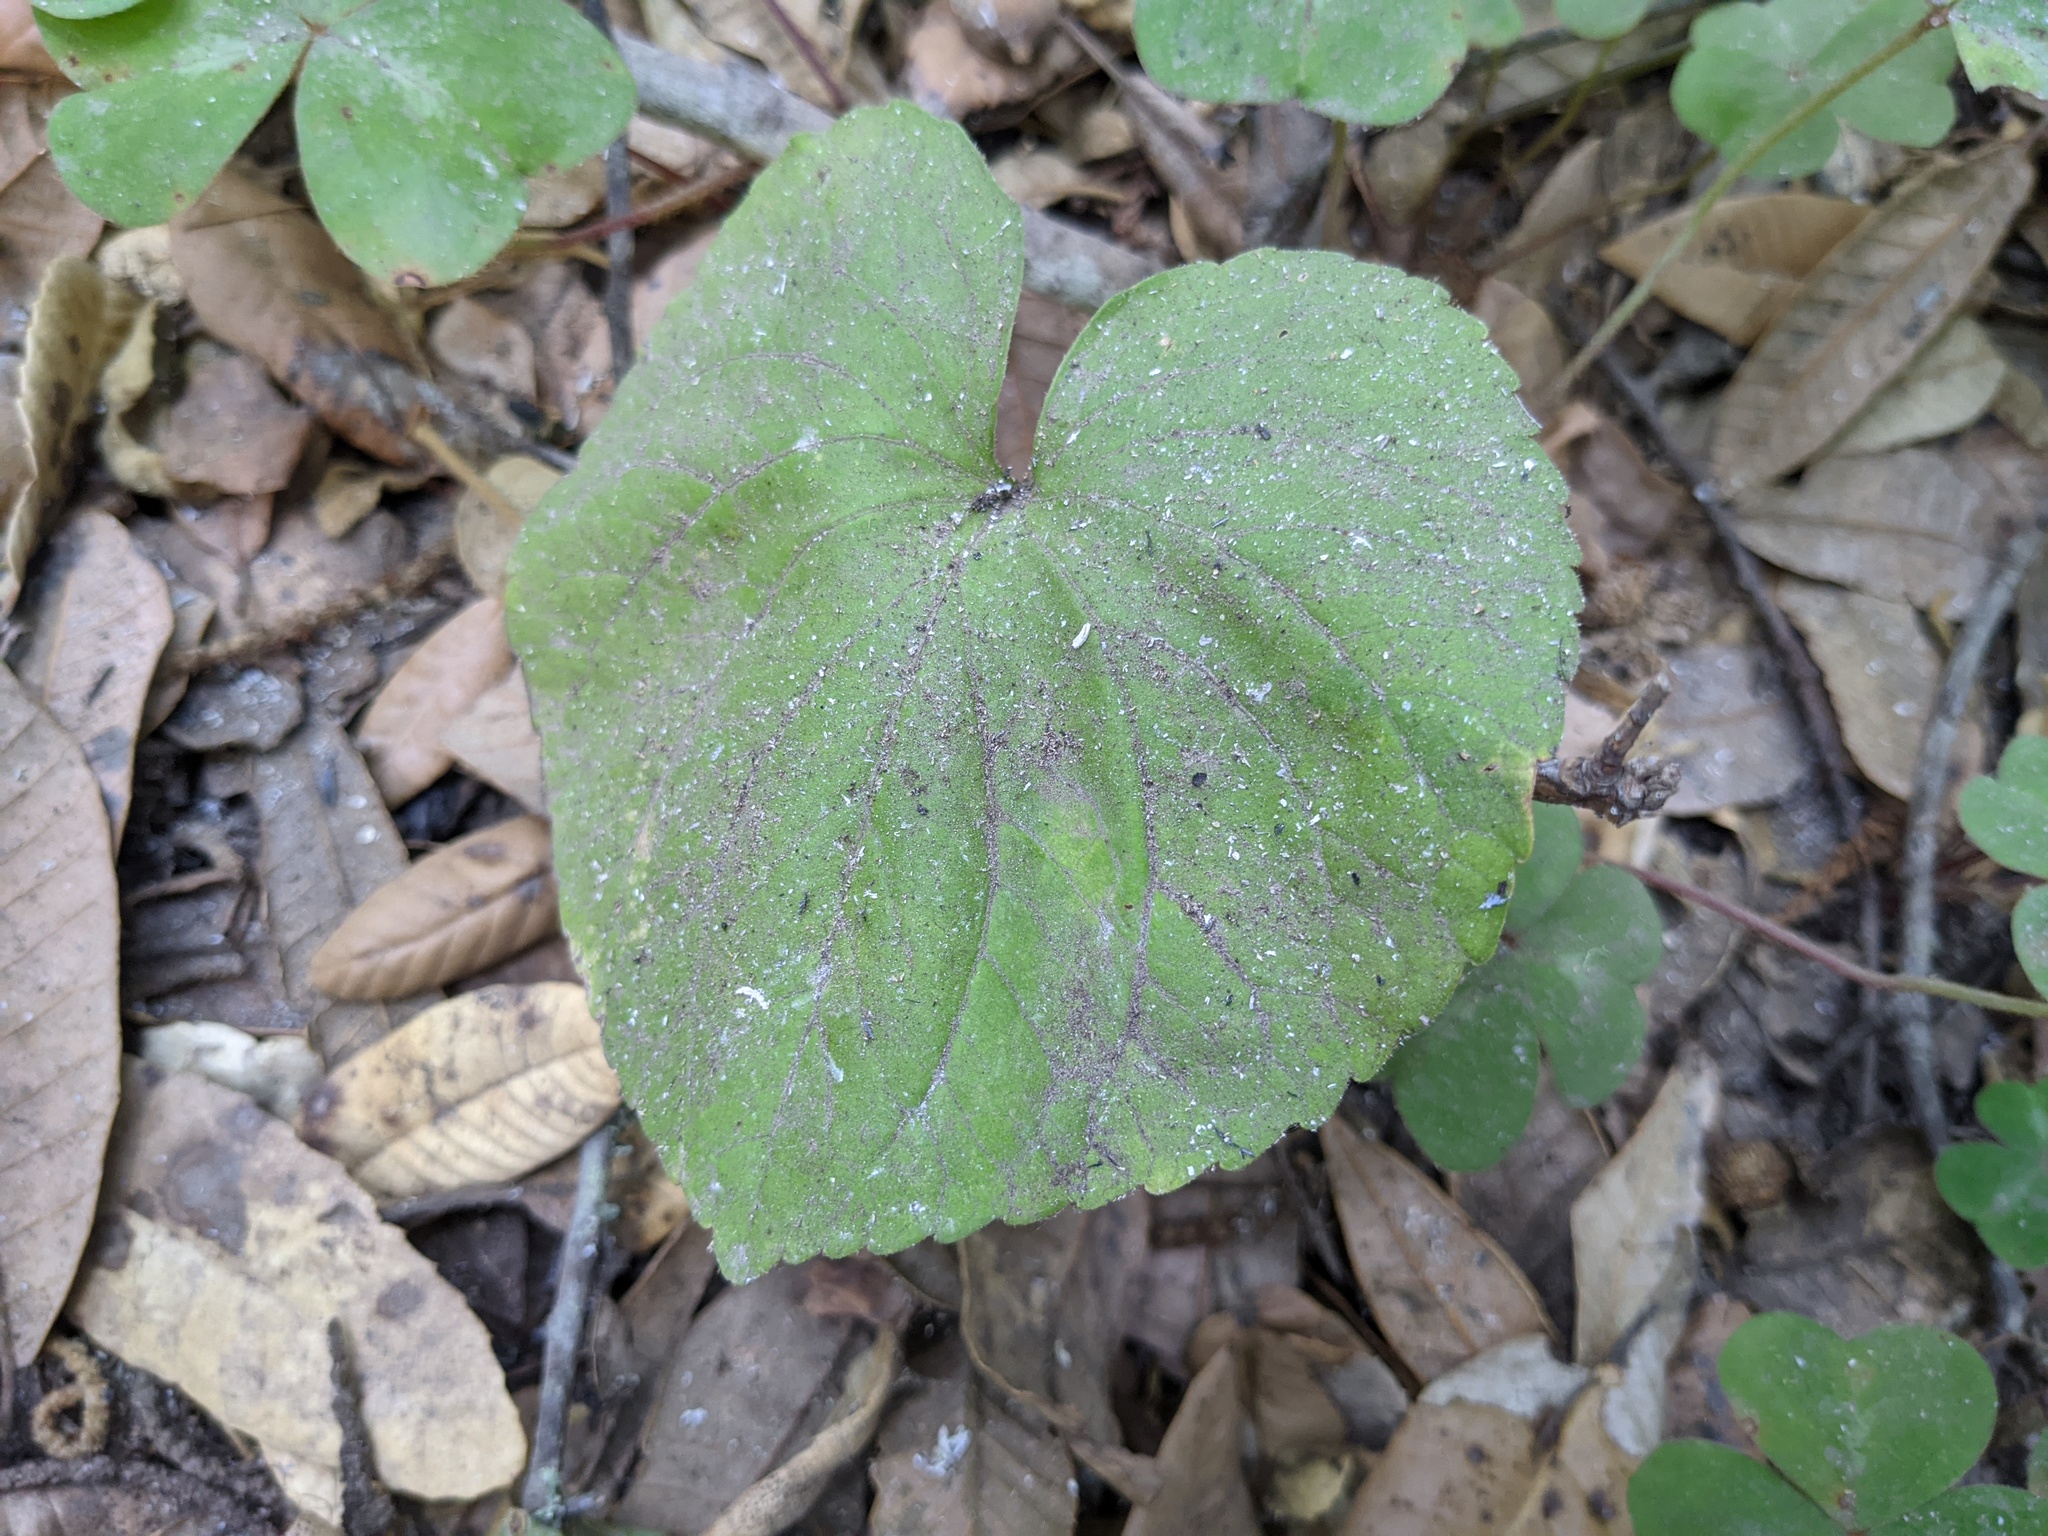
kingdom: Plantae
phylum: Tracheophyta
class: Magnoliopsida
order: Malpighiales
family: Violaceae
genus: Viola
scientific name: Viola glabella
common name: Stream violet
